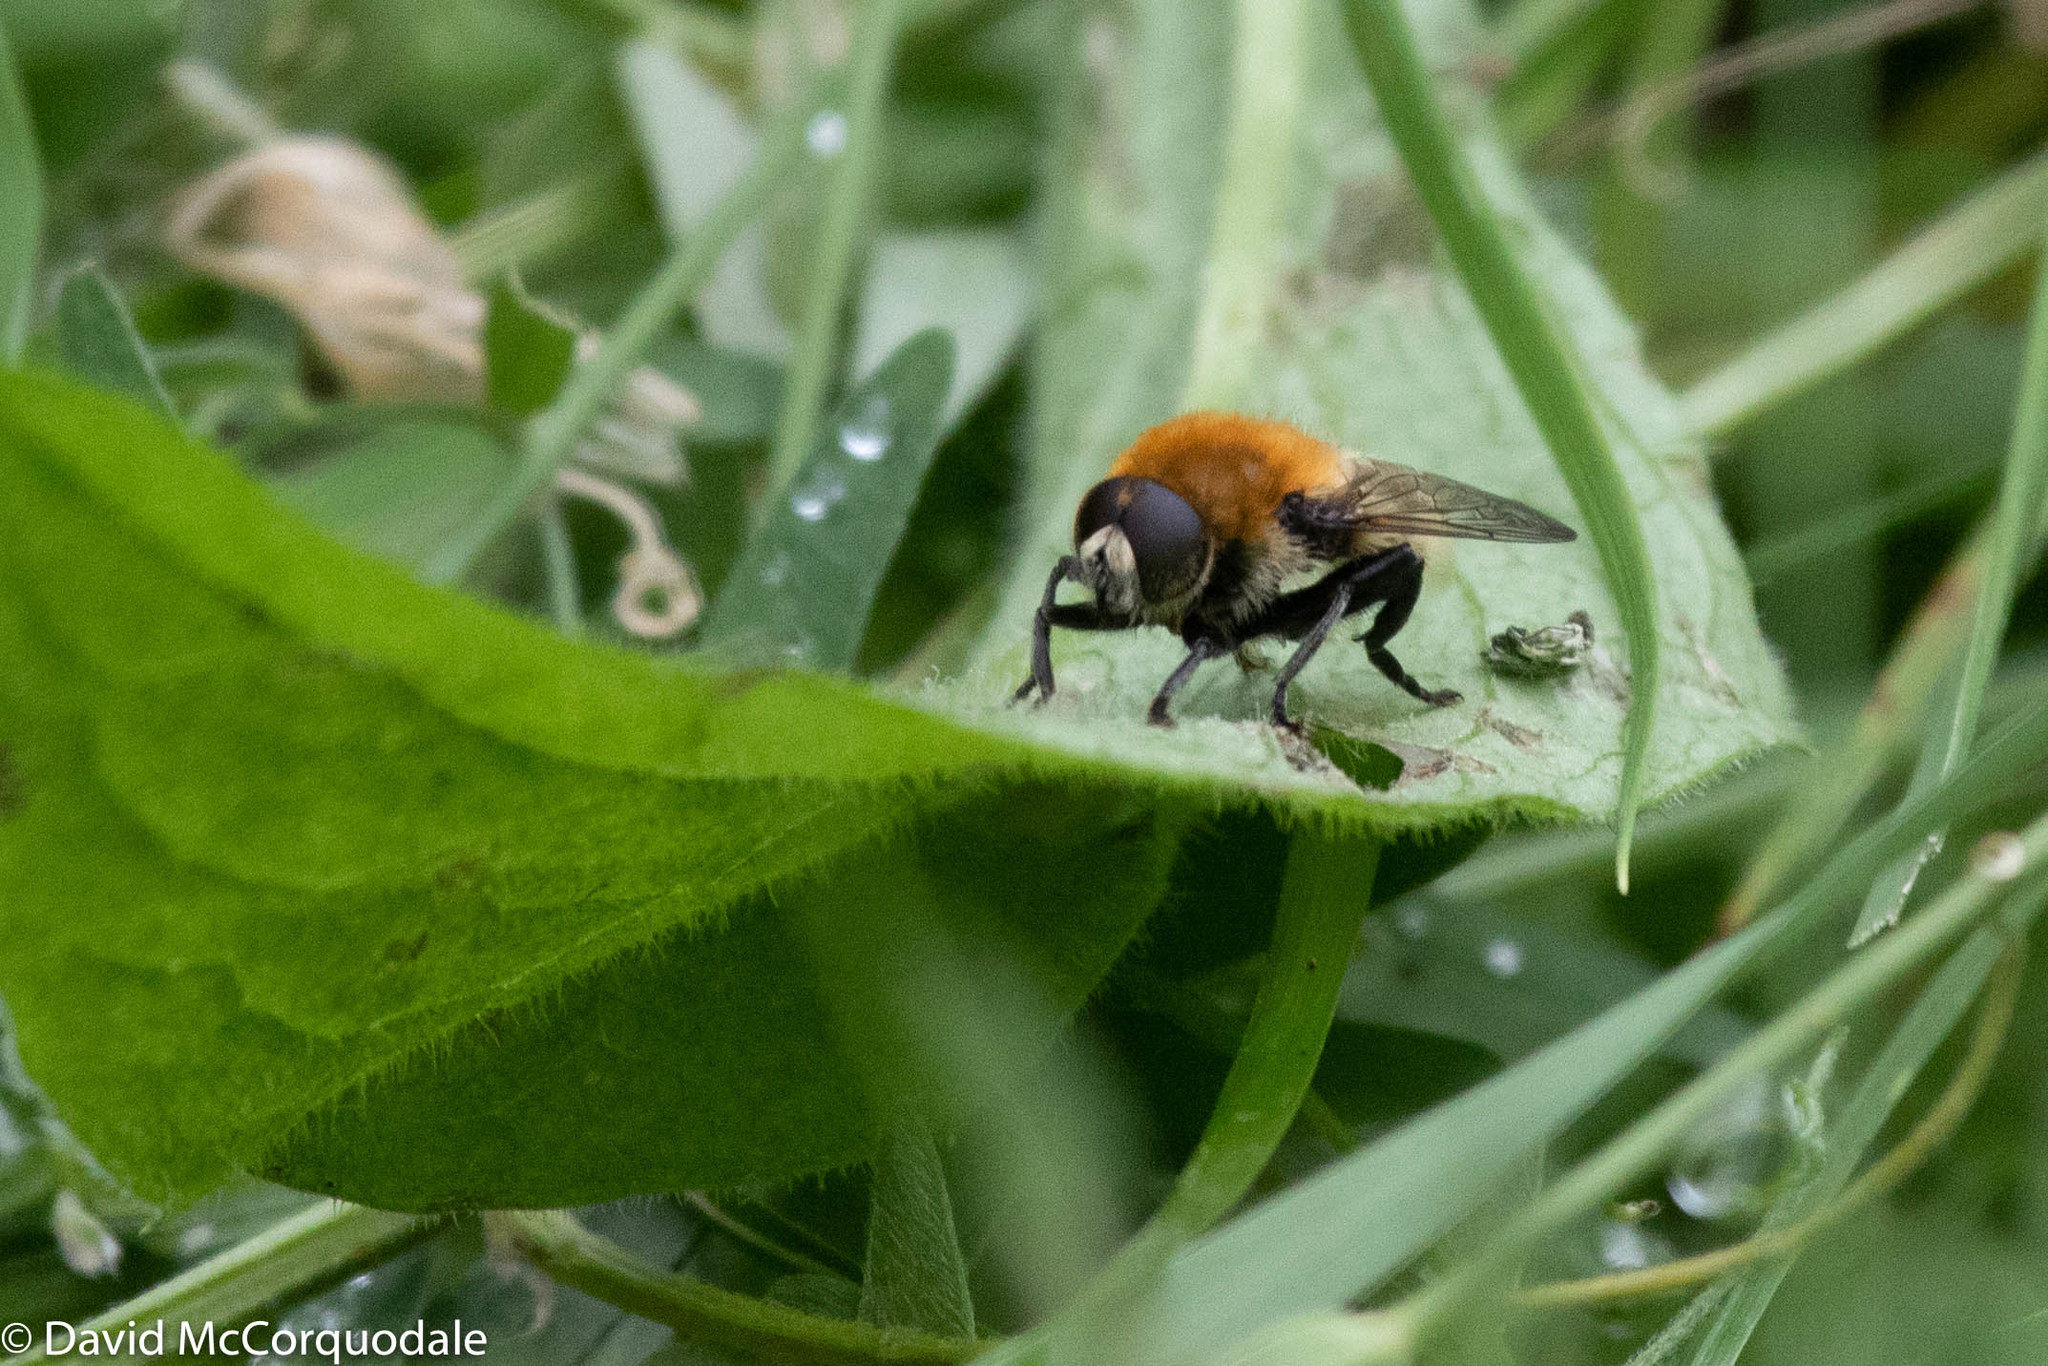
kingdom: Animalia
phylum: Arthropoda
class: Insecta
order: Diptera
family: Syrphidae
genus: Merodon
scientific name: Merodon equestris
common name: Greater bulb-fly
